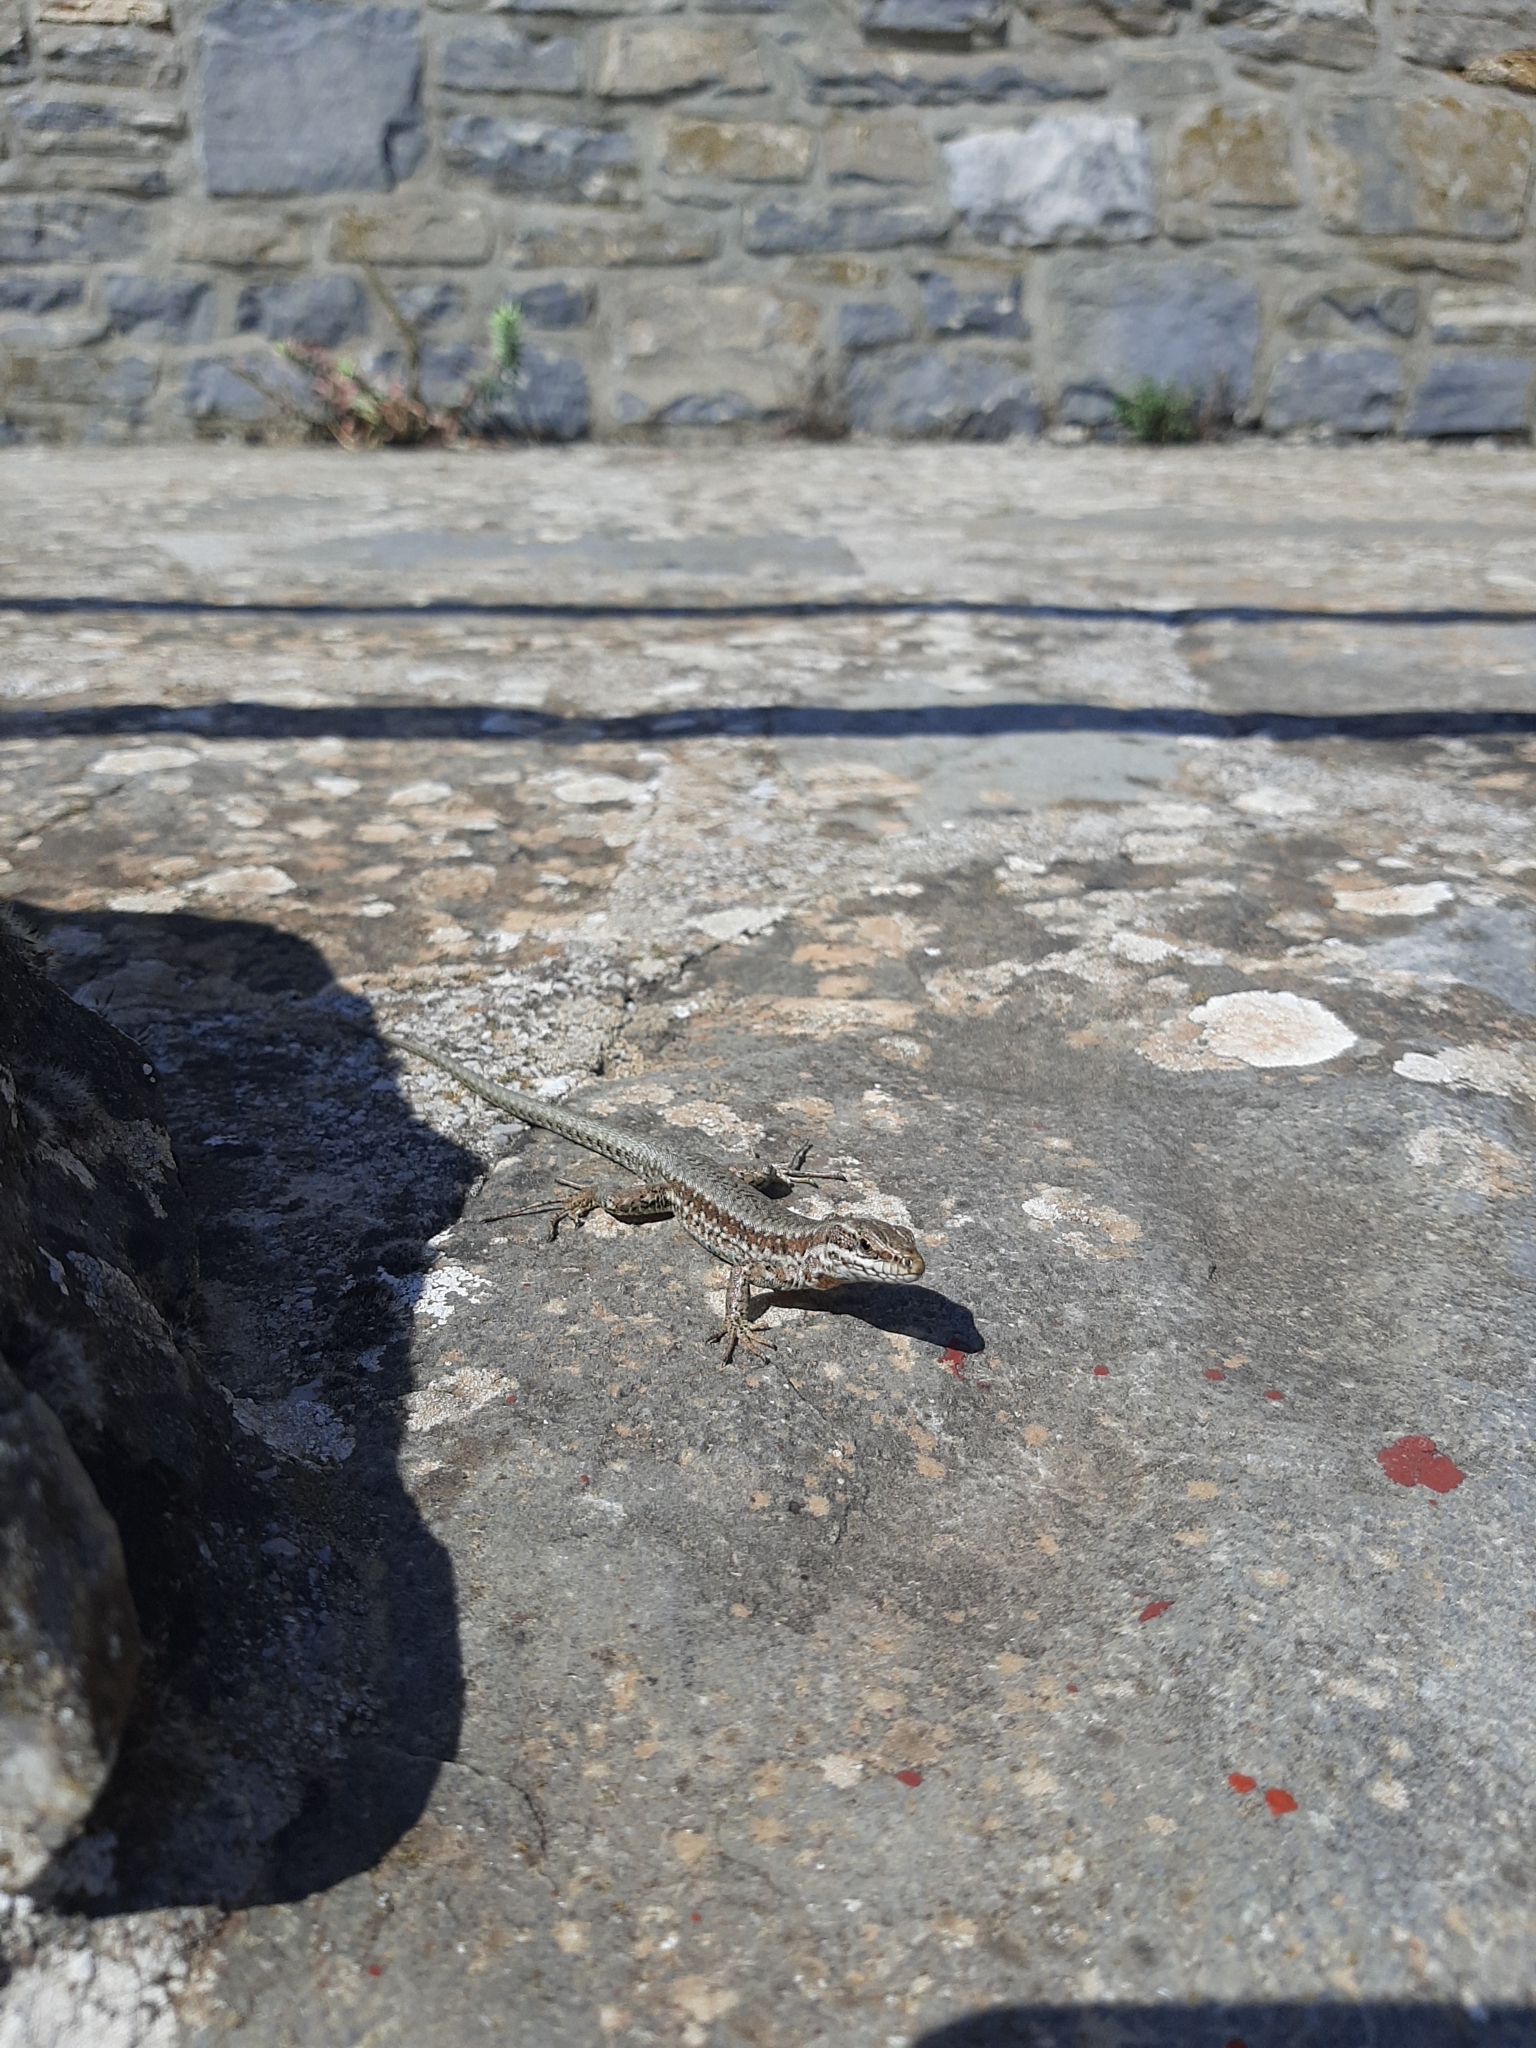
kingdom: Animalia
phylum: Chordata
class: Squamata
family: Lacertidae
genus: Podarcis
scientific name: Podarcis muralis
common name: Common wall lizard
